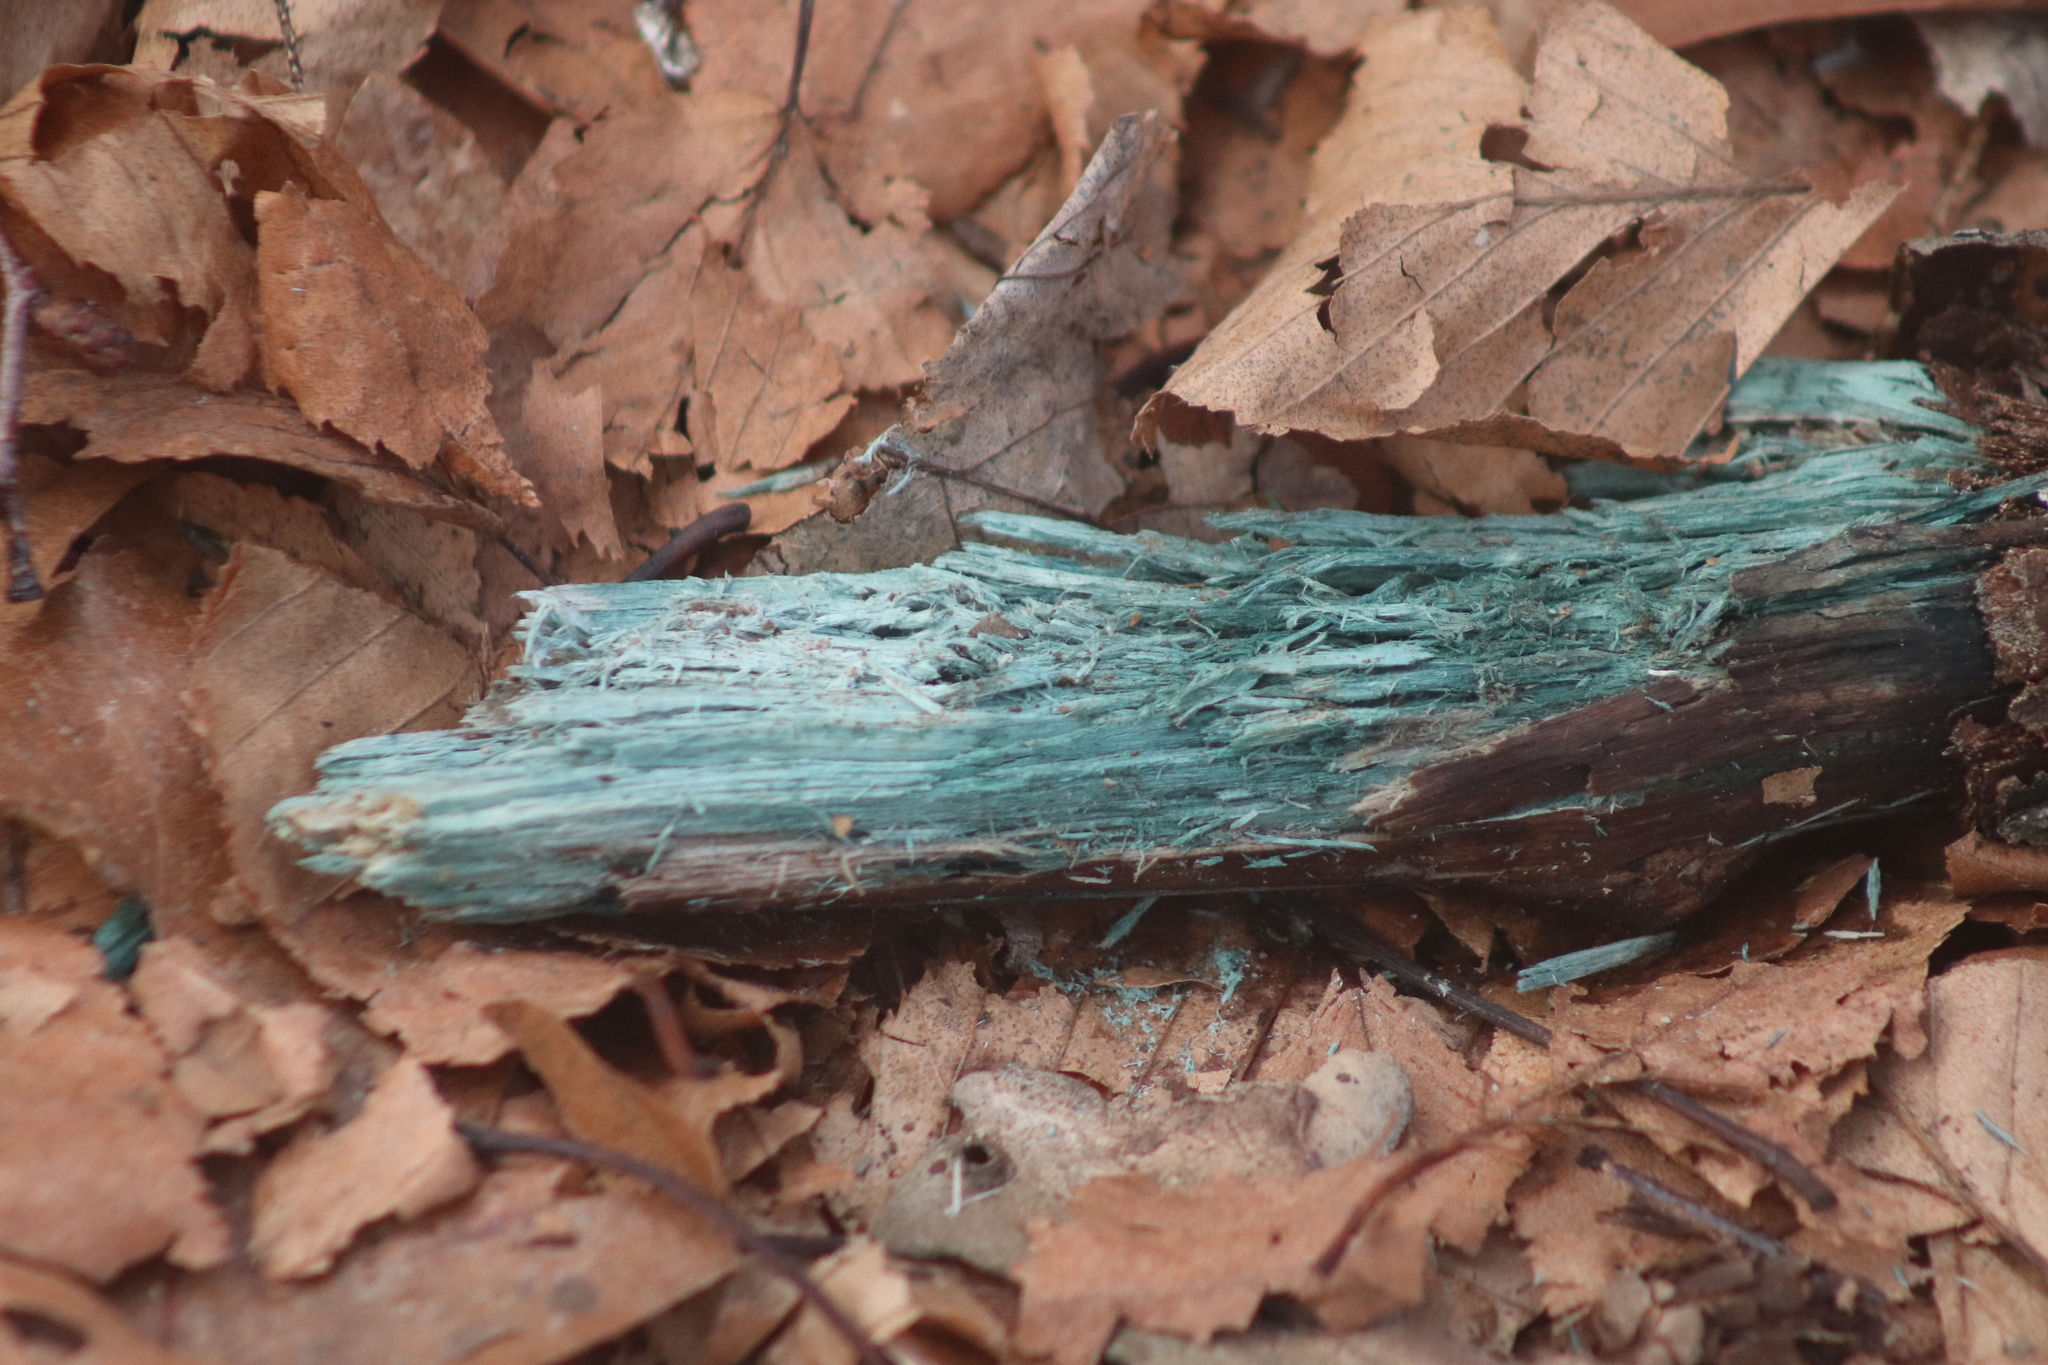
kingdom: Fungi
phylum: Ascomycota
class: Leotiomycetes
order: Helotiales
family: Chlorociboriaceae
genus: Chlorociboria
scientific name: Chlorociboria
